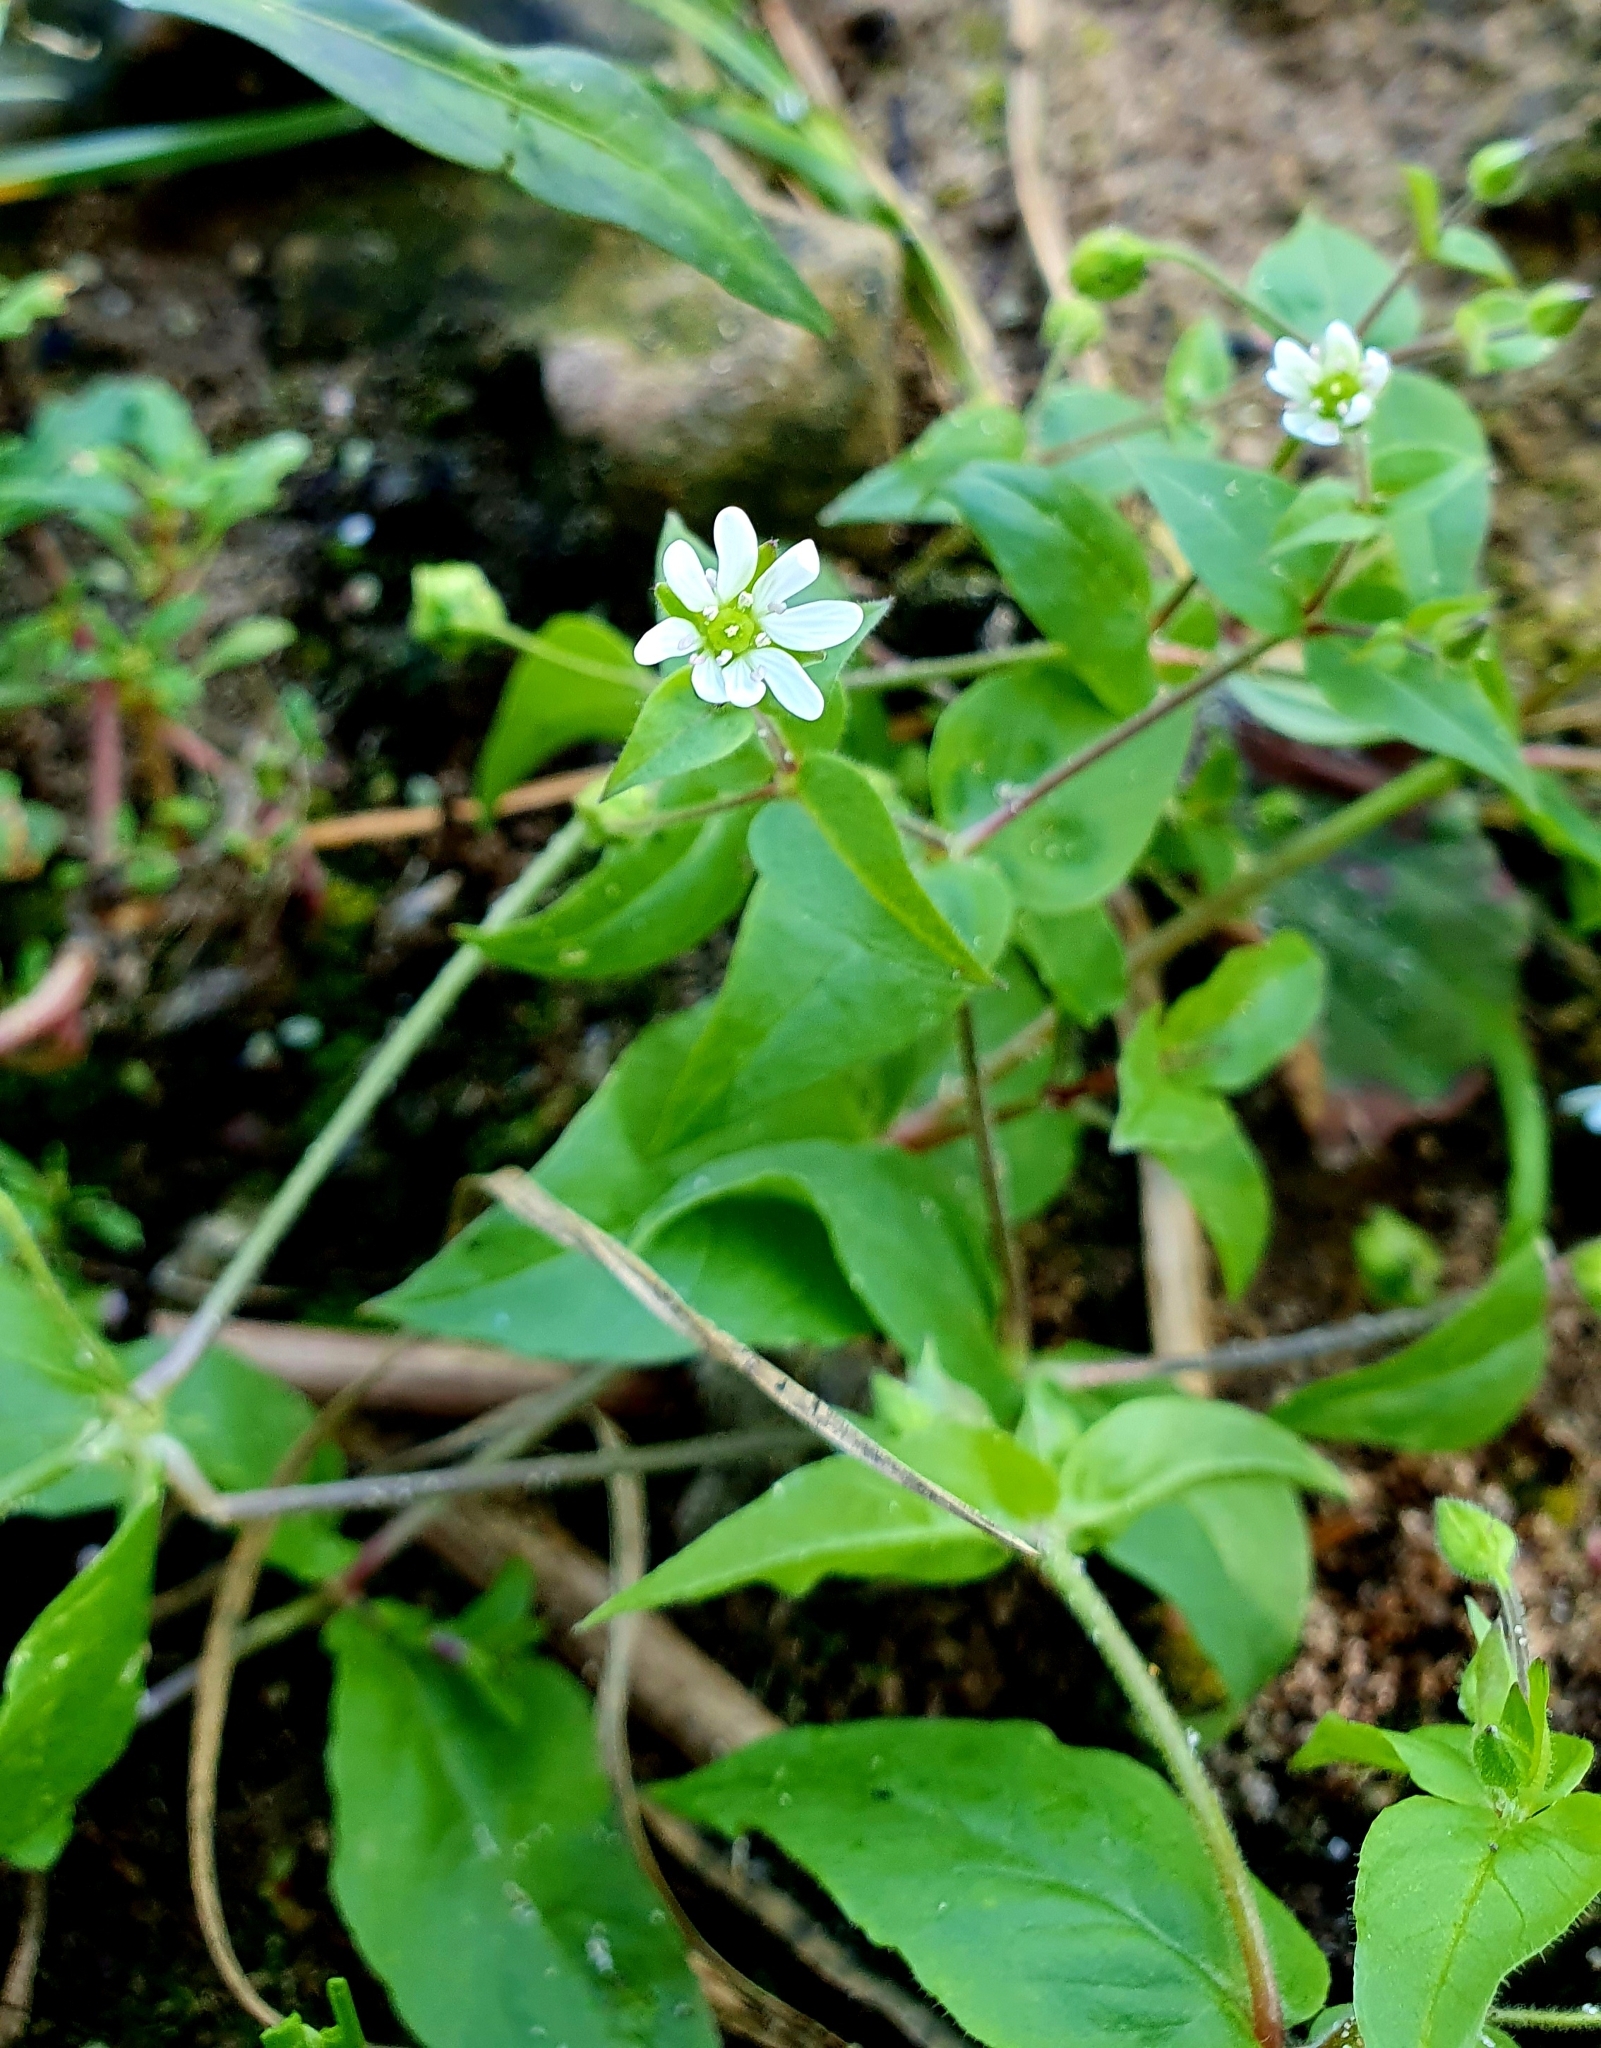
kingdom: Plantae
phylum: Tracheophyta
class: Magnoliopsida
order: Caryophyllales
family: Caryophyllaceae
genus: Stellaria
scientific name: Stellaria aquatica
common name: Water chickweed
